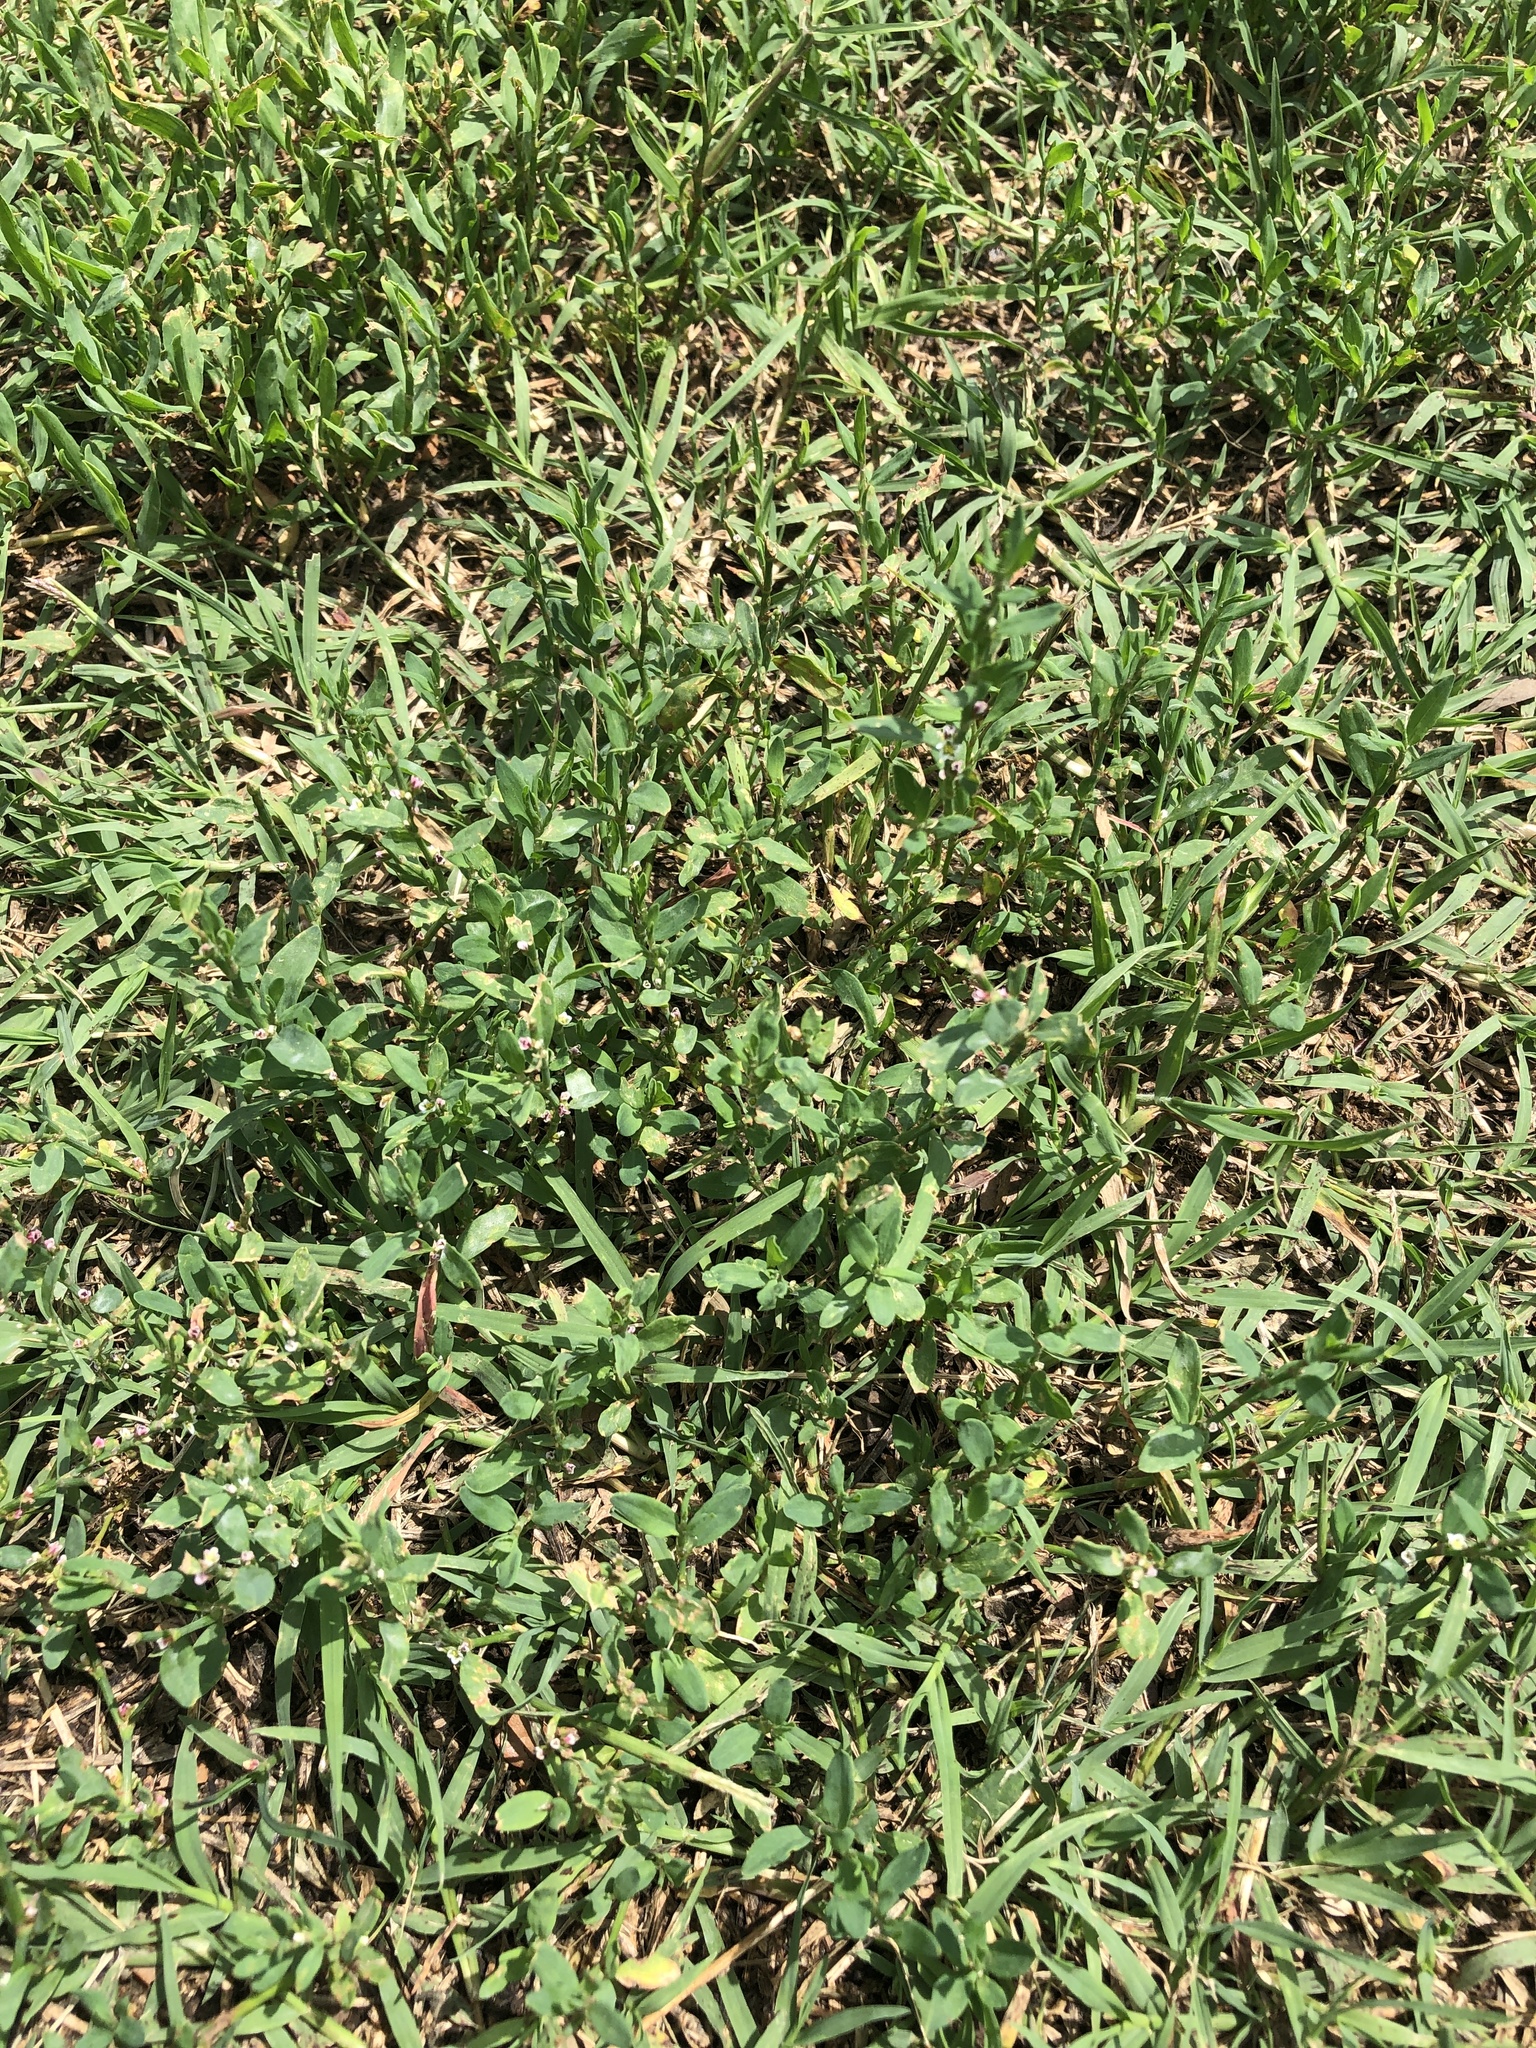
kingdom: Plantae
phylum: Tracheophyta
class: Magnoliopsida
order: Caryophyllales
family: Polygonaceae
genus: Polygonum
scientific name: Polygonum aviculare
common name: Prostrate knotweed
